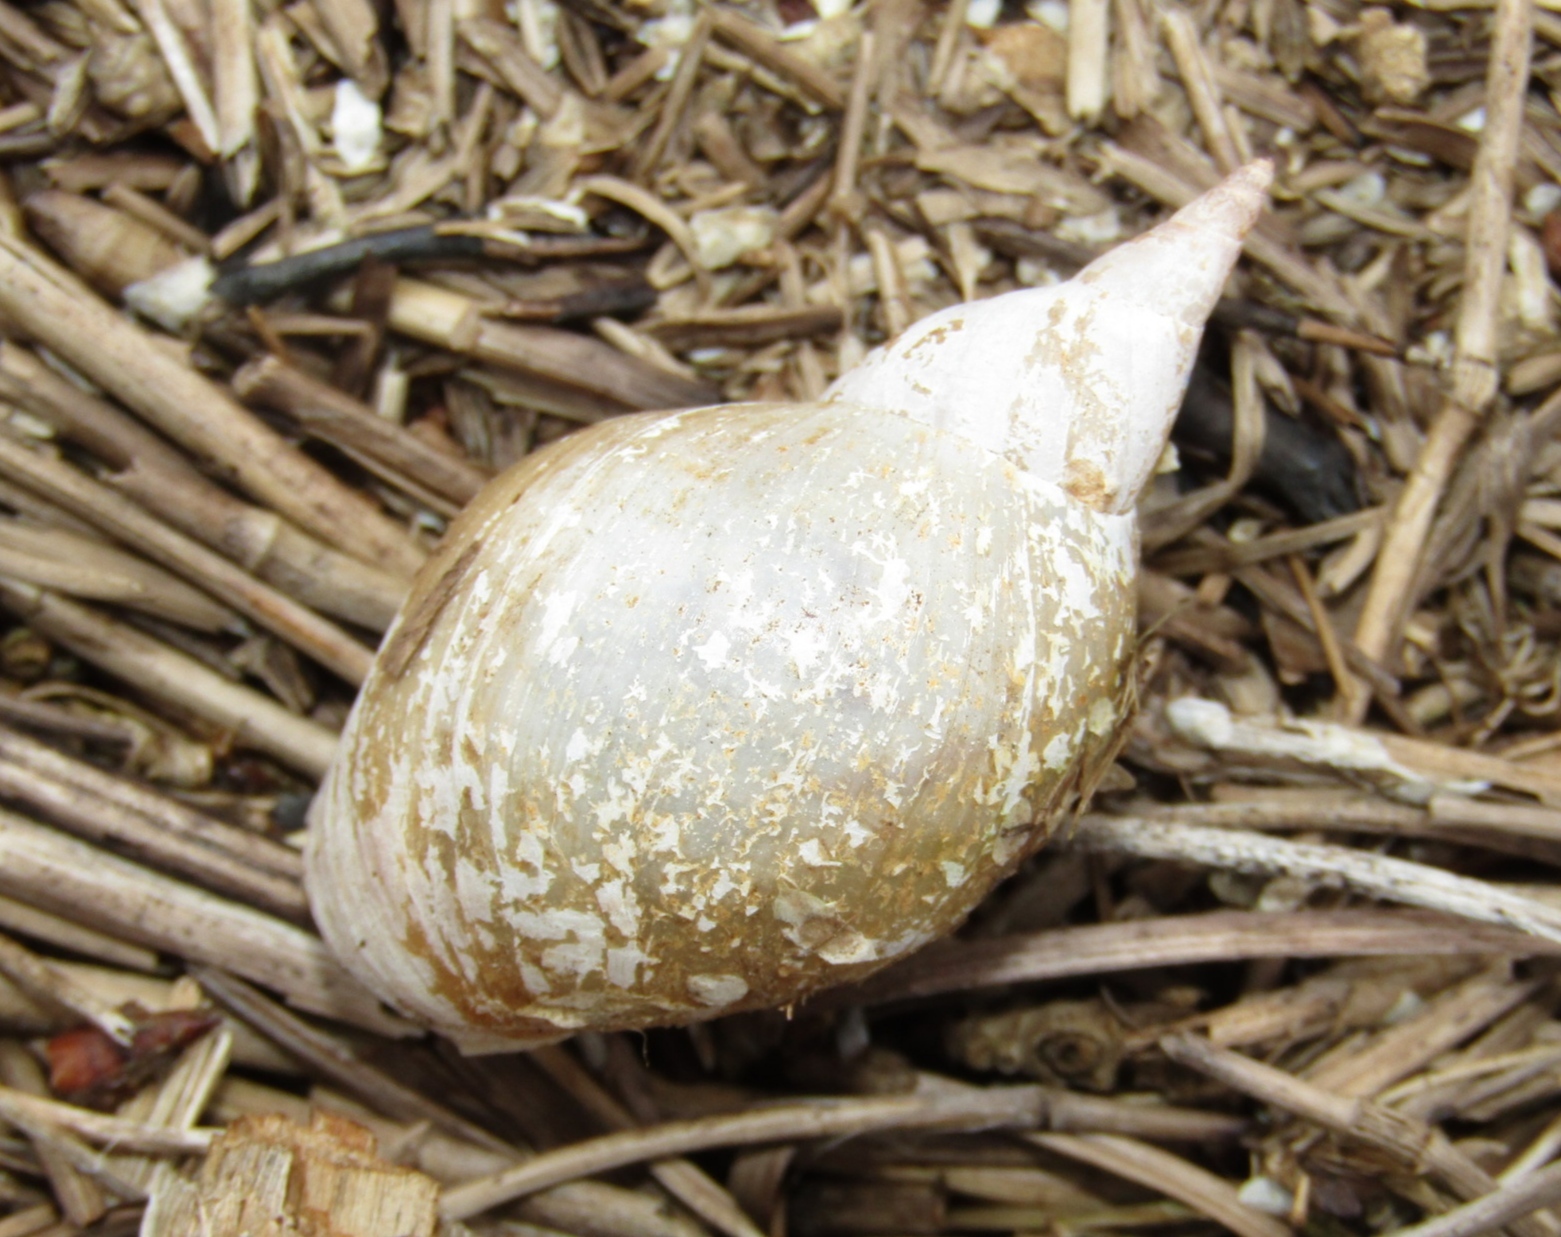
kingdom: Animalia
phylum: Mollusca
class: Gastropoda
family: Lymnaeidae
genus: Lymnaea
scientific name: Lymnaea stagnalis
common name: Great pond snail
